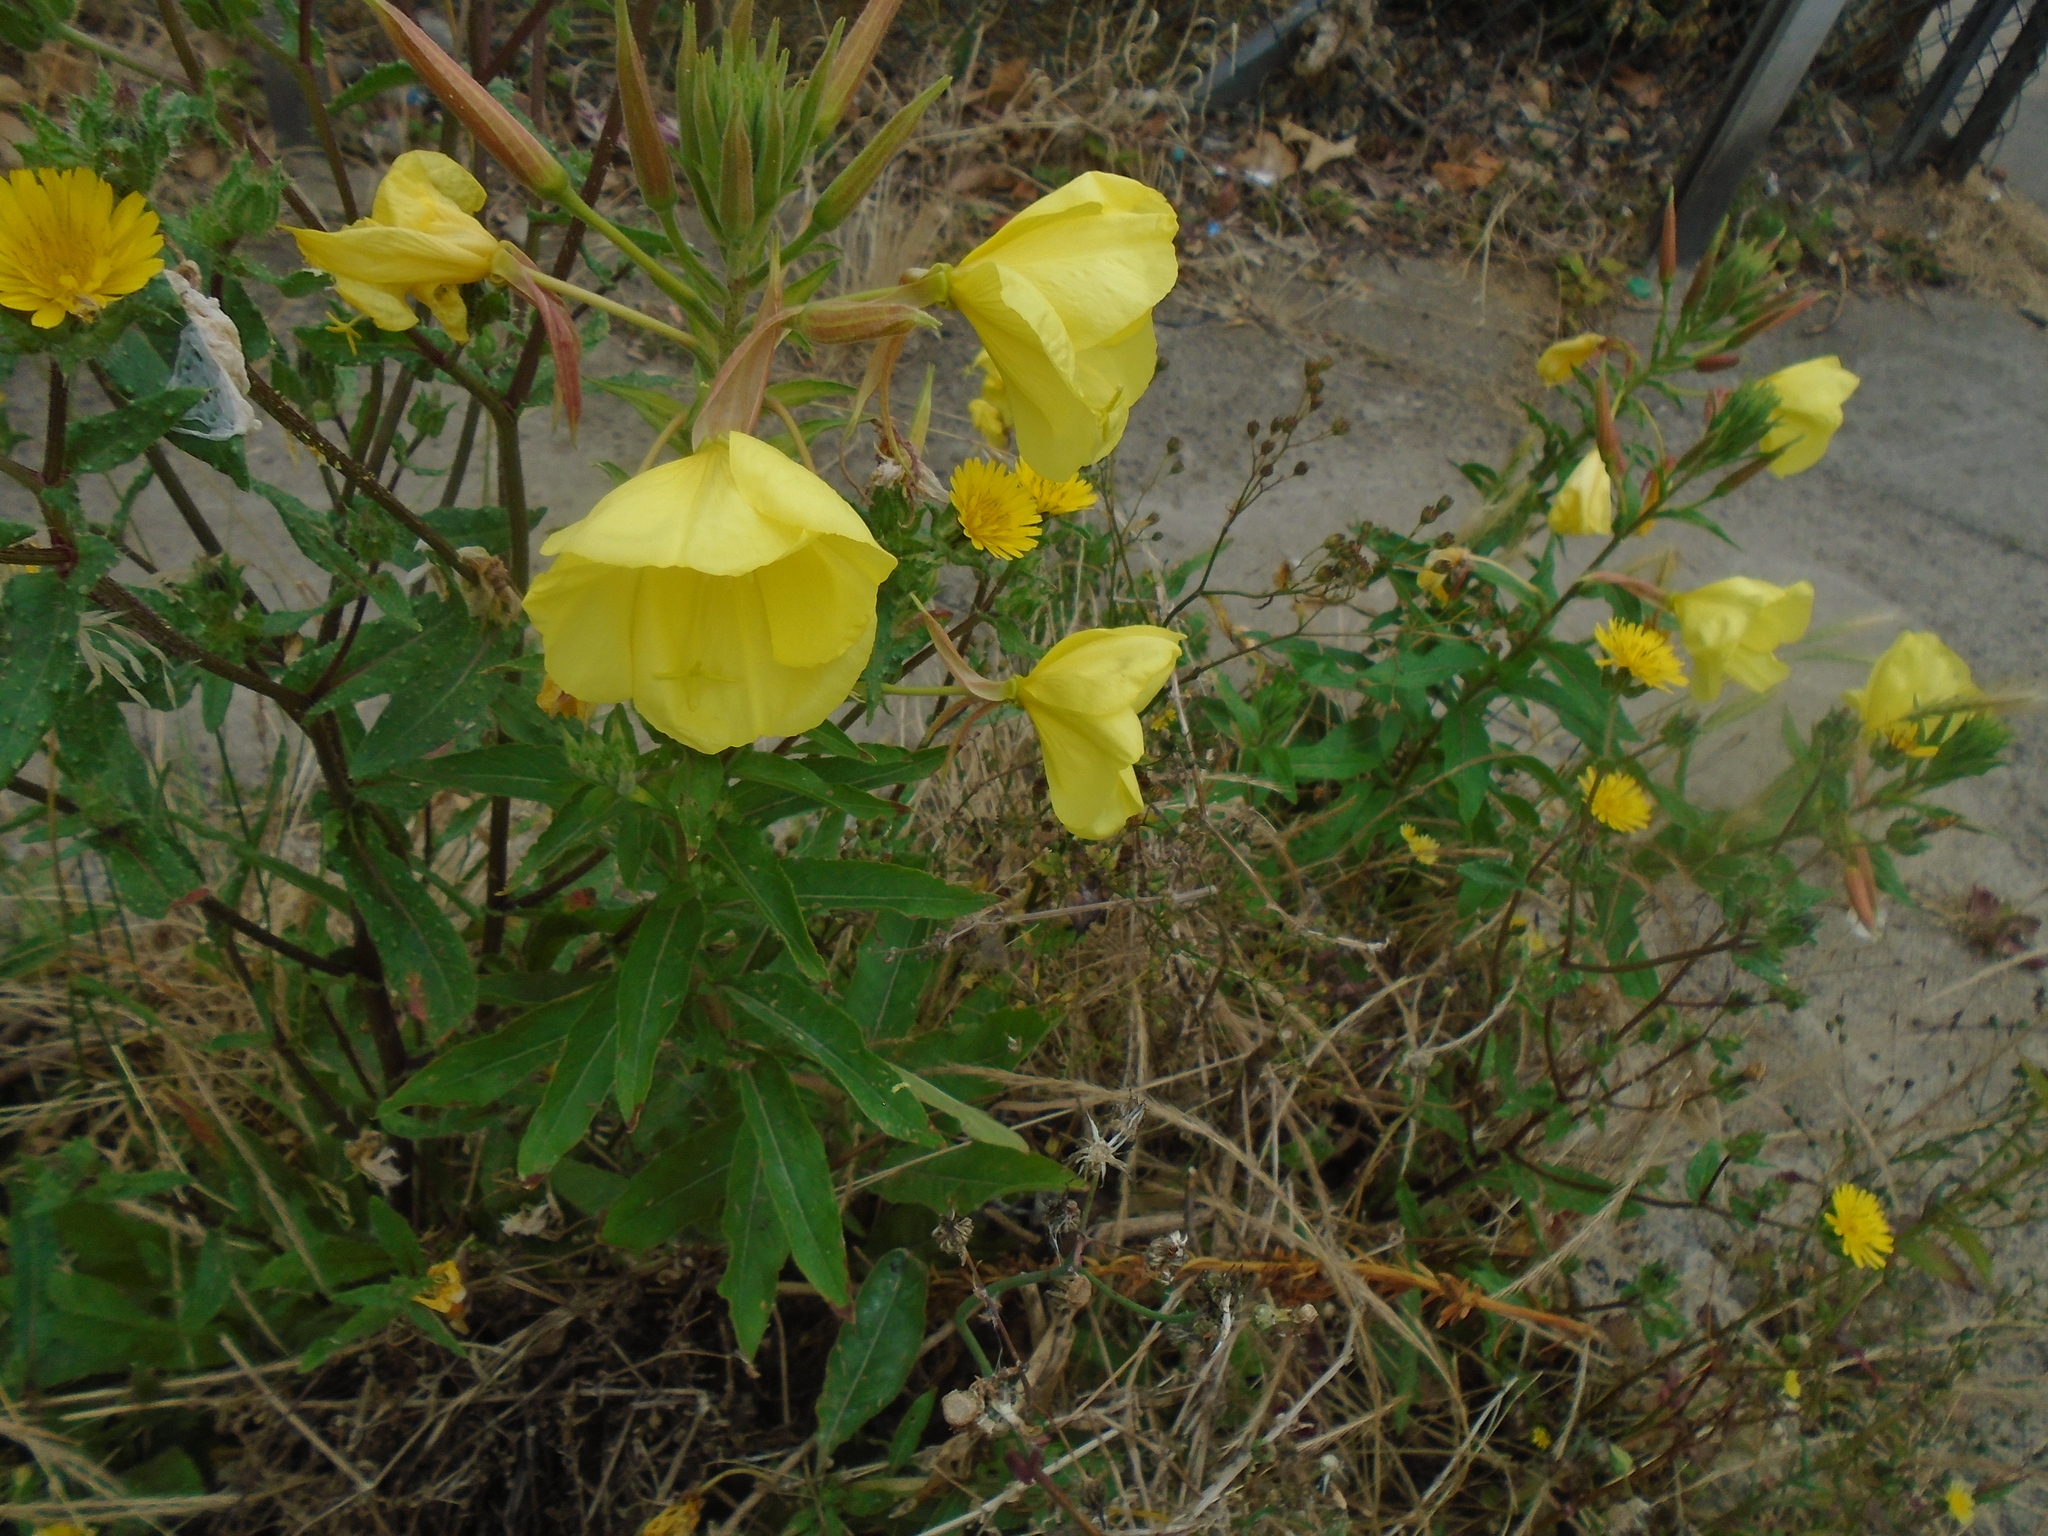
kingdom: Plantae
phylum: Tracheophyta
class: Magnoliopsida
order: Myrtales
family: Onagraceae
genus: Oenothera
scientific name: Oenothera glazioviana
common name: Large-flowered evening-primrose
